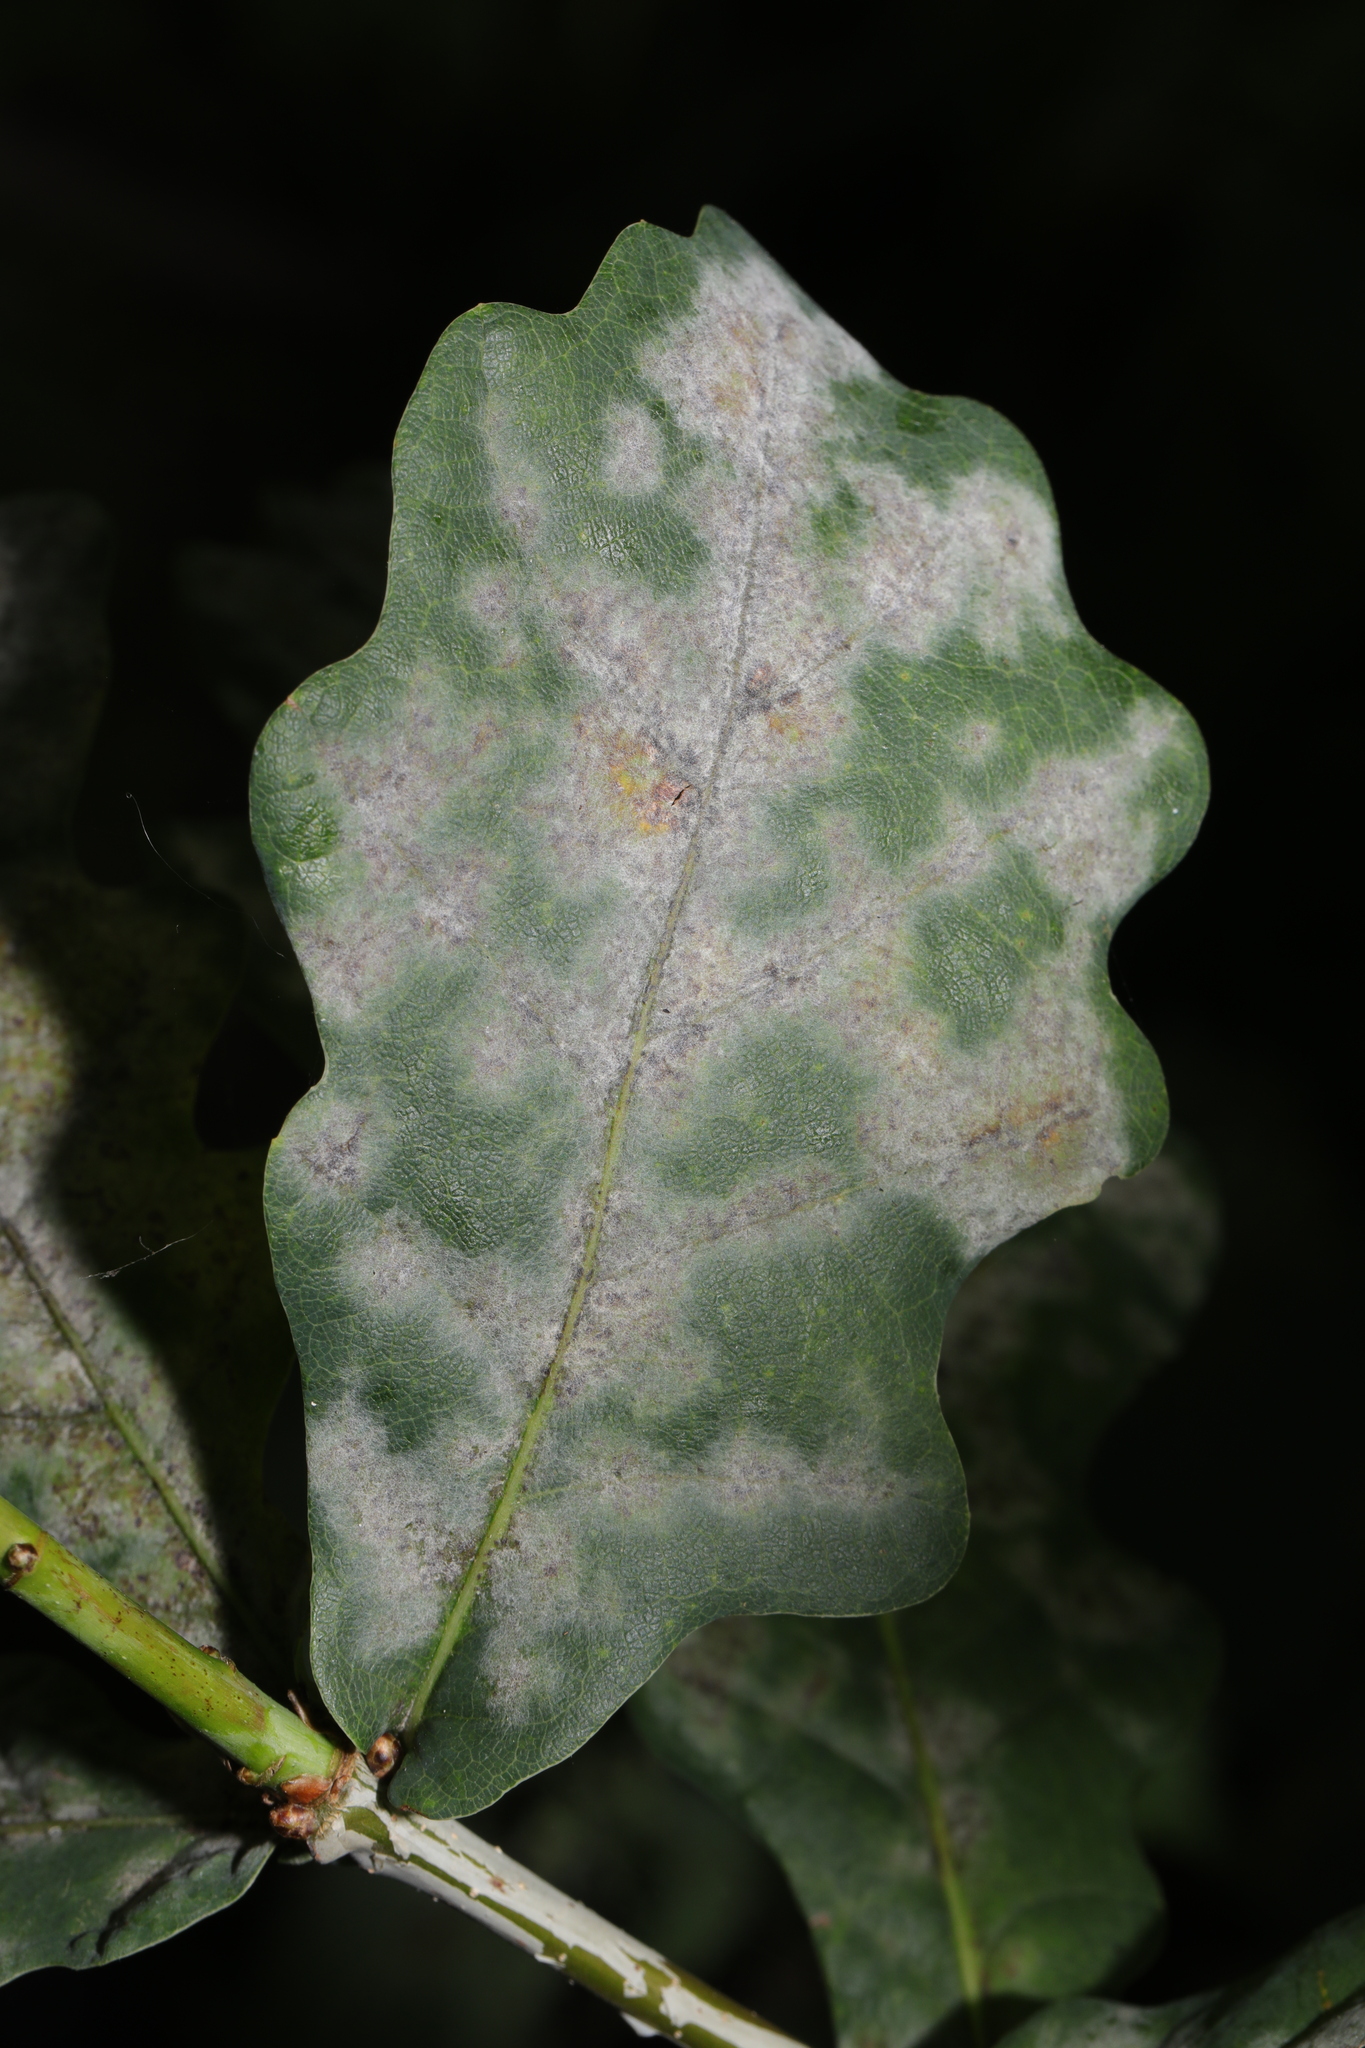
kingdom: Fungi
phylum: Ascomycota
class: Leotiomycetes
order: Helotiales
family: Erysiphaceae
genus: Erysiphe
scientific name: Erysiphe alphitoides
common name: Oak mildew
